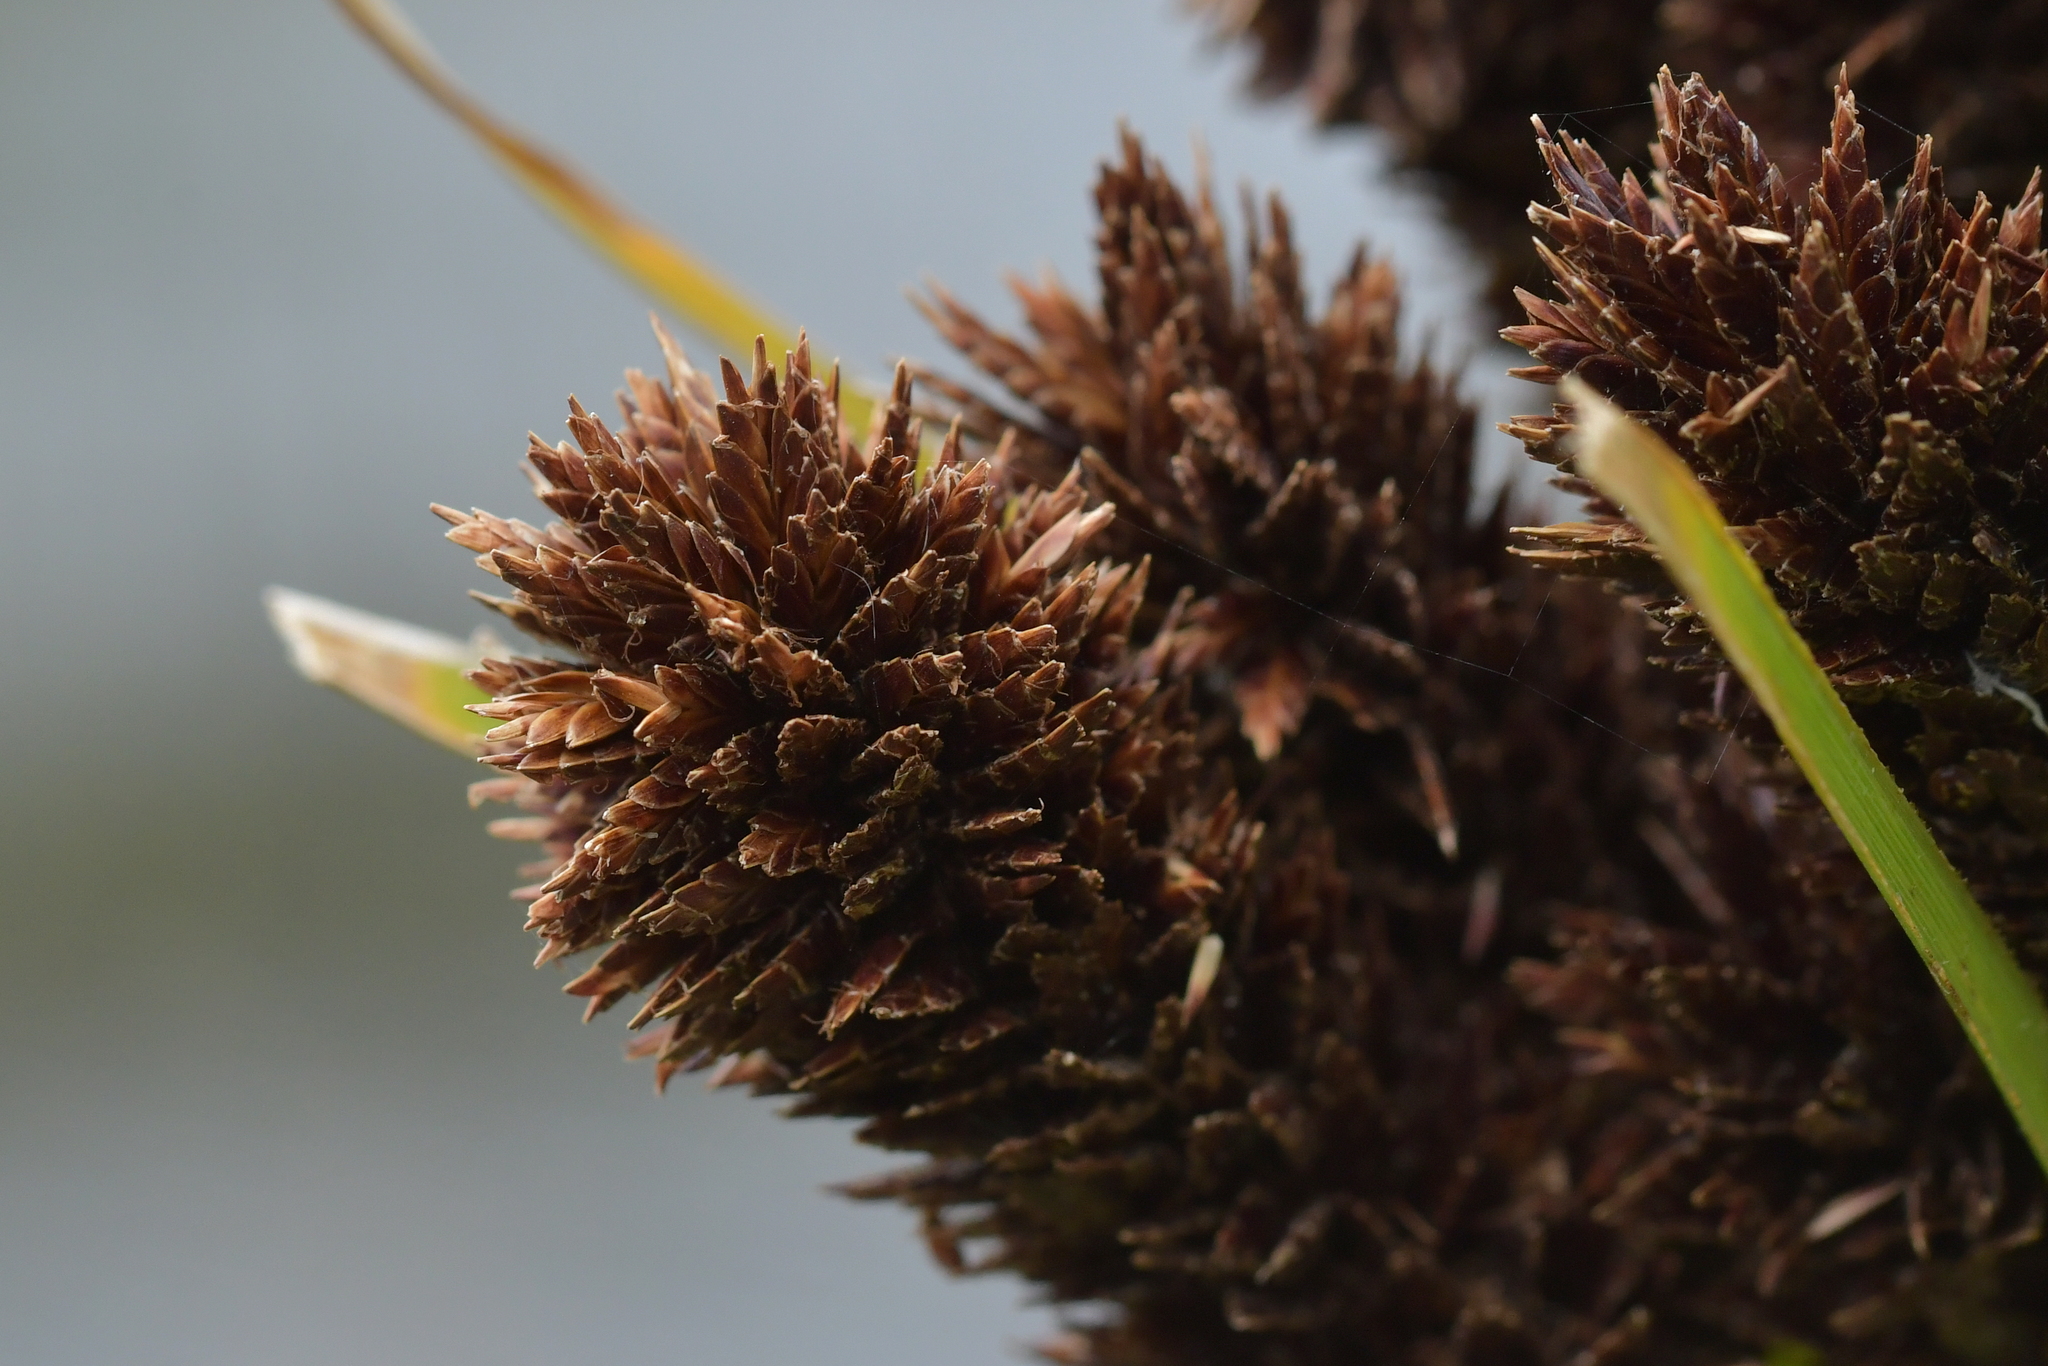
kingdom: Plantae
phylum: Tracheophyta
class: Liliopsida
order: Poales
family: Cyperaceae
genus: Cyperus
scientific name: Cyperus ustulatus
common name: Giant umbrella-sedge
